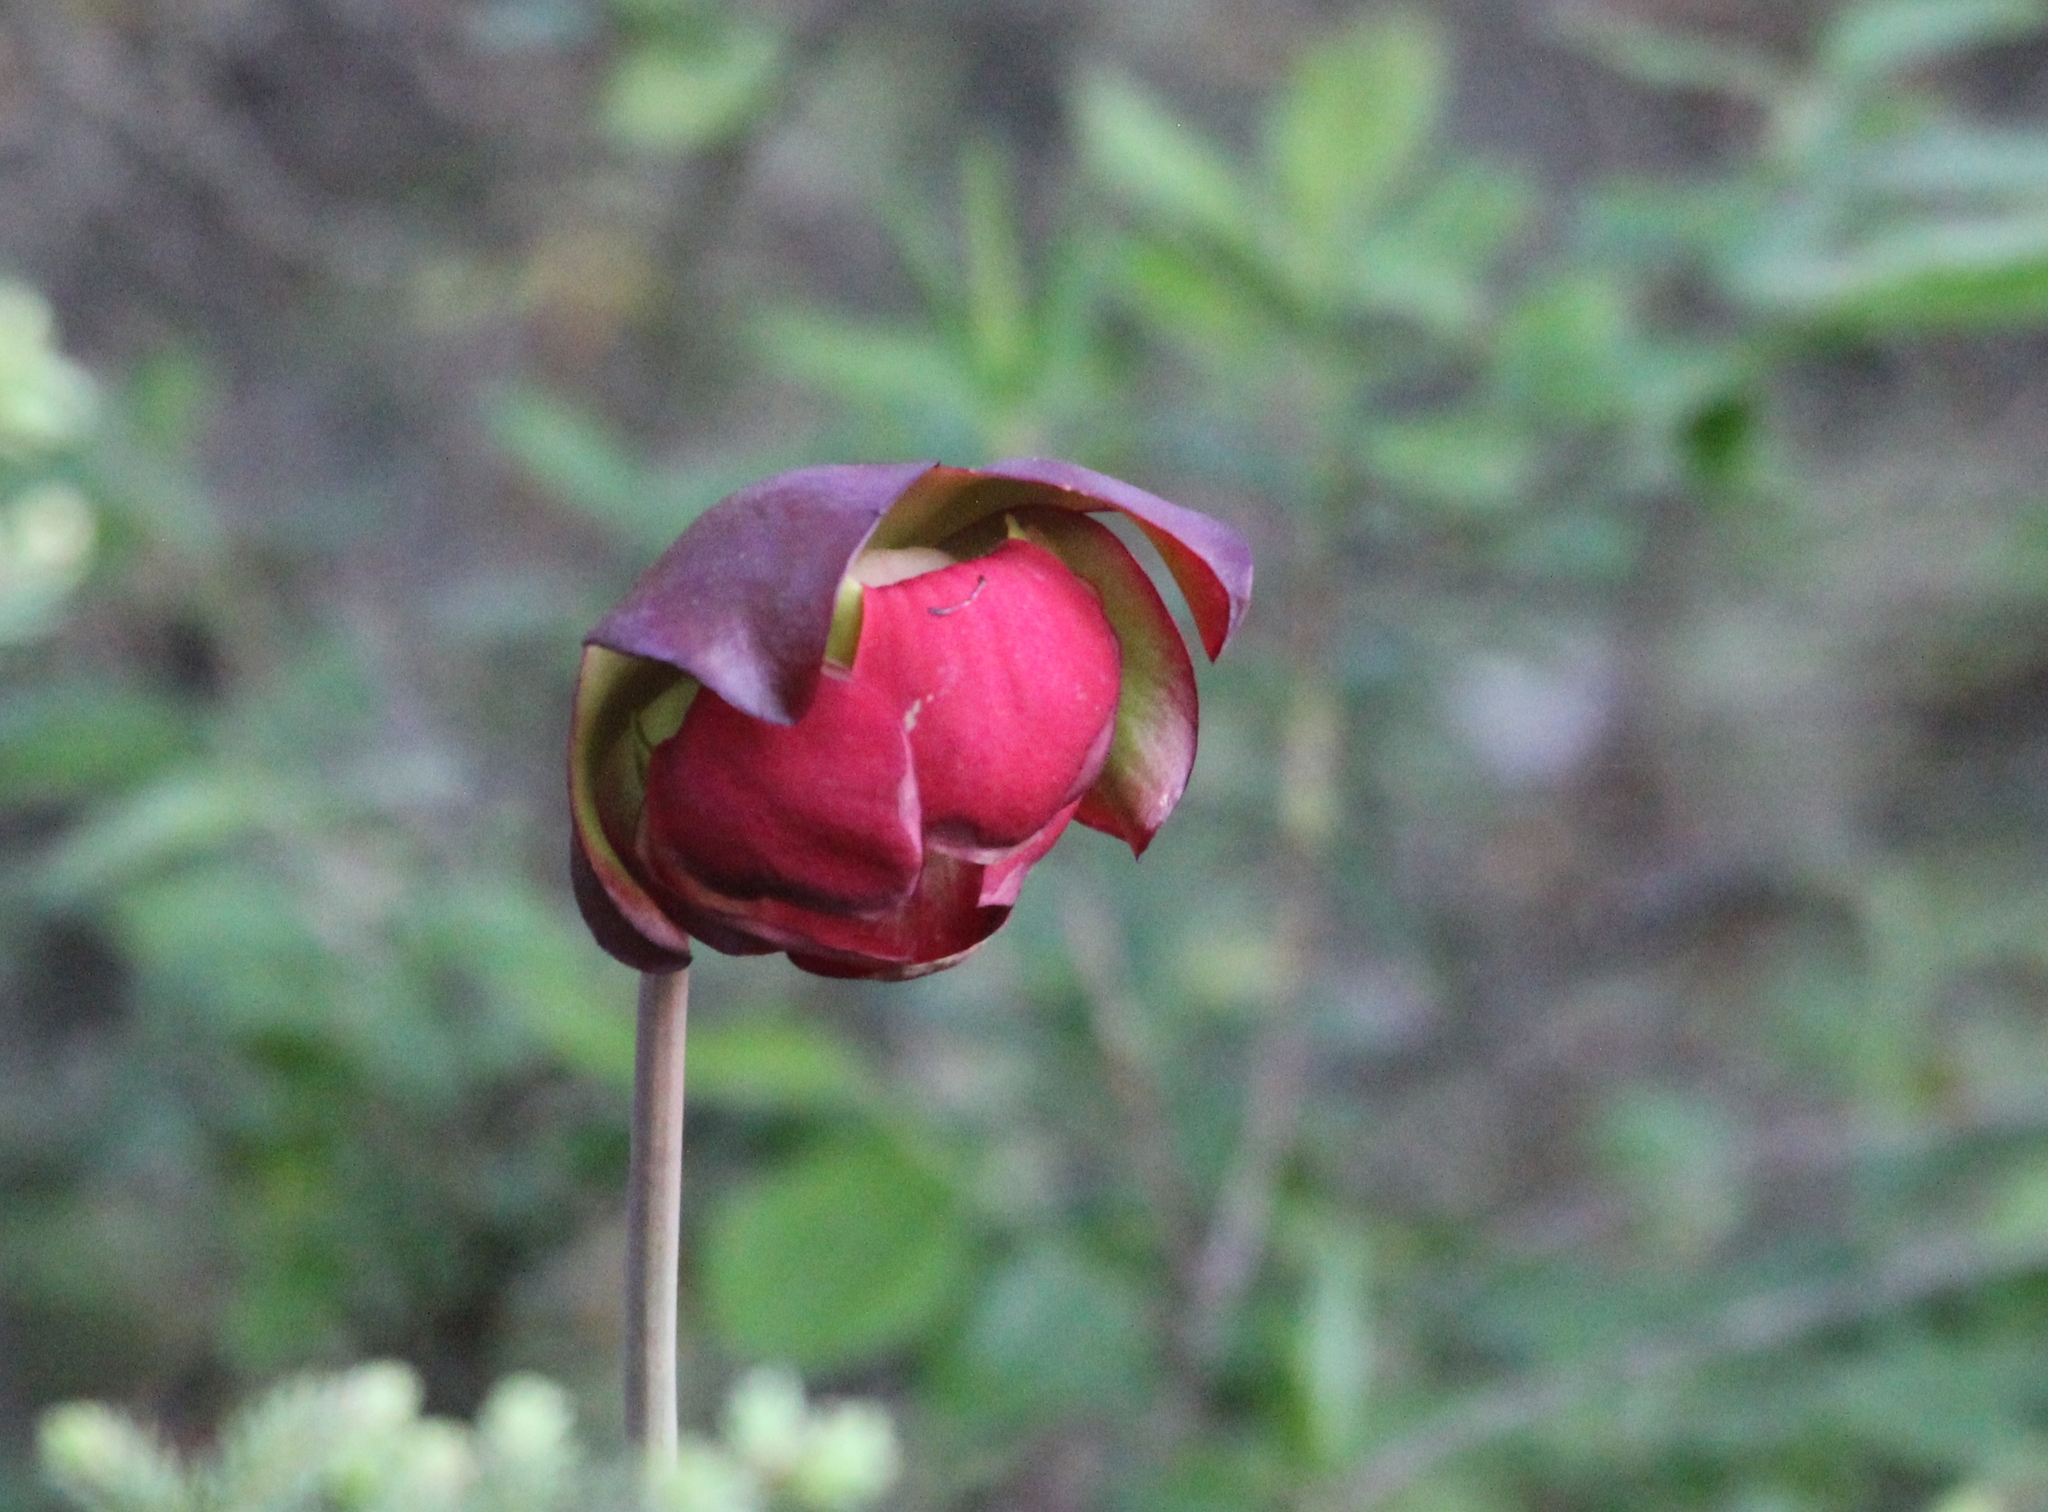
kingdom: Plantae
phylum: Tracheophyta
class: Magnoliopsida
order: Ericales
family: Sarraceniaceae
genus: Sarracenia
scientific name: Sarracenia purpurea
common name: Pitcherplant
